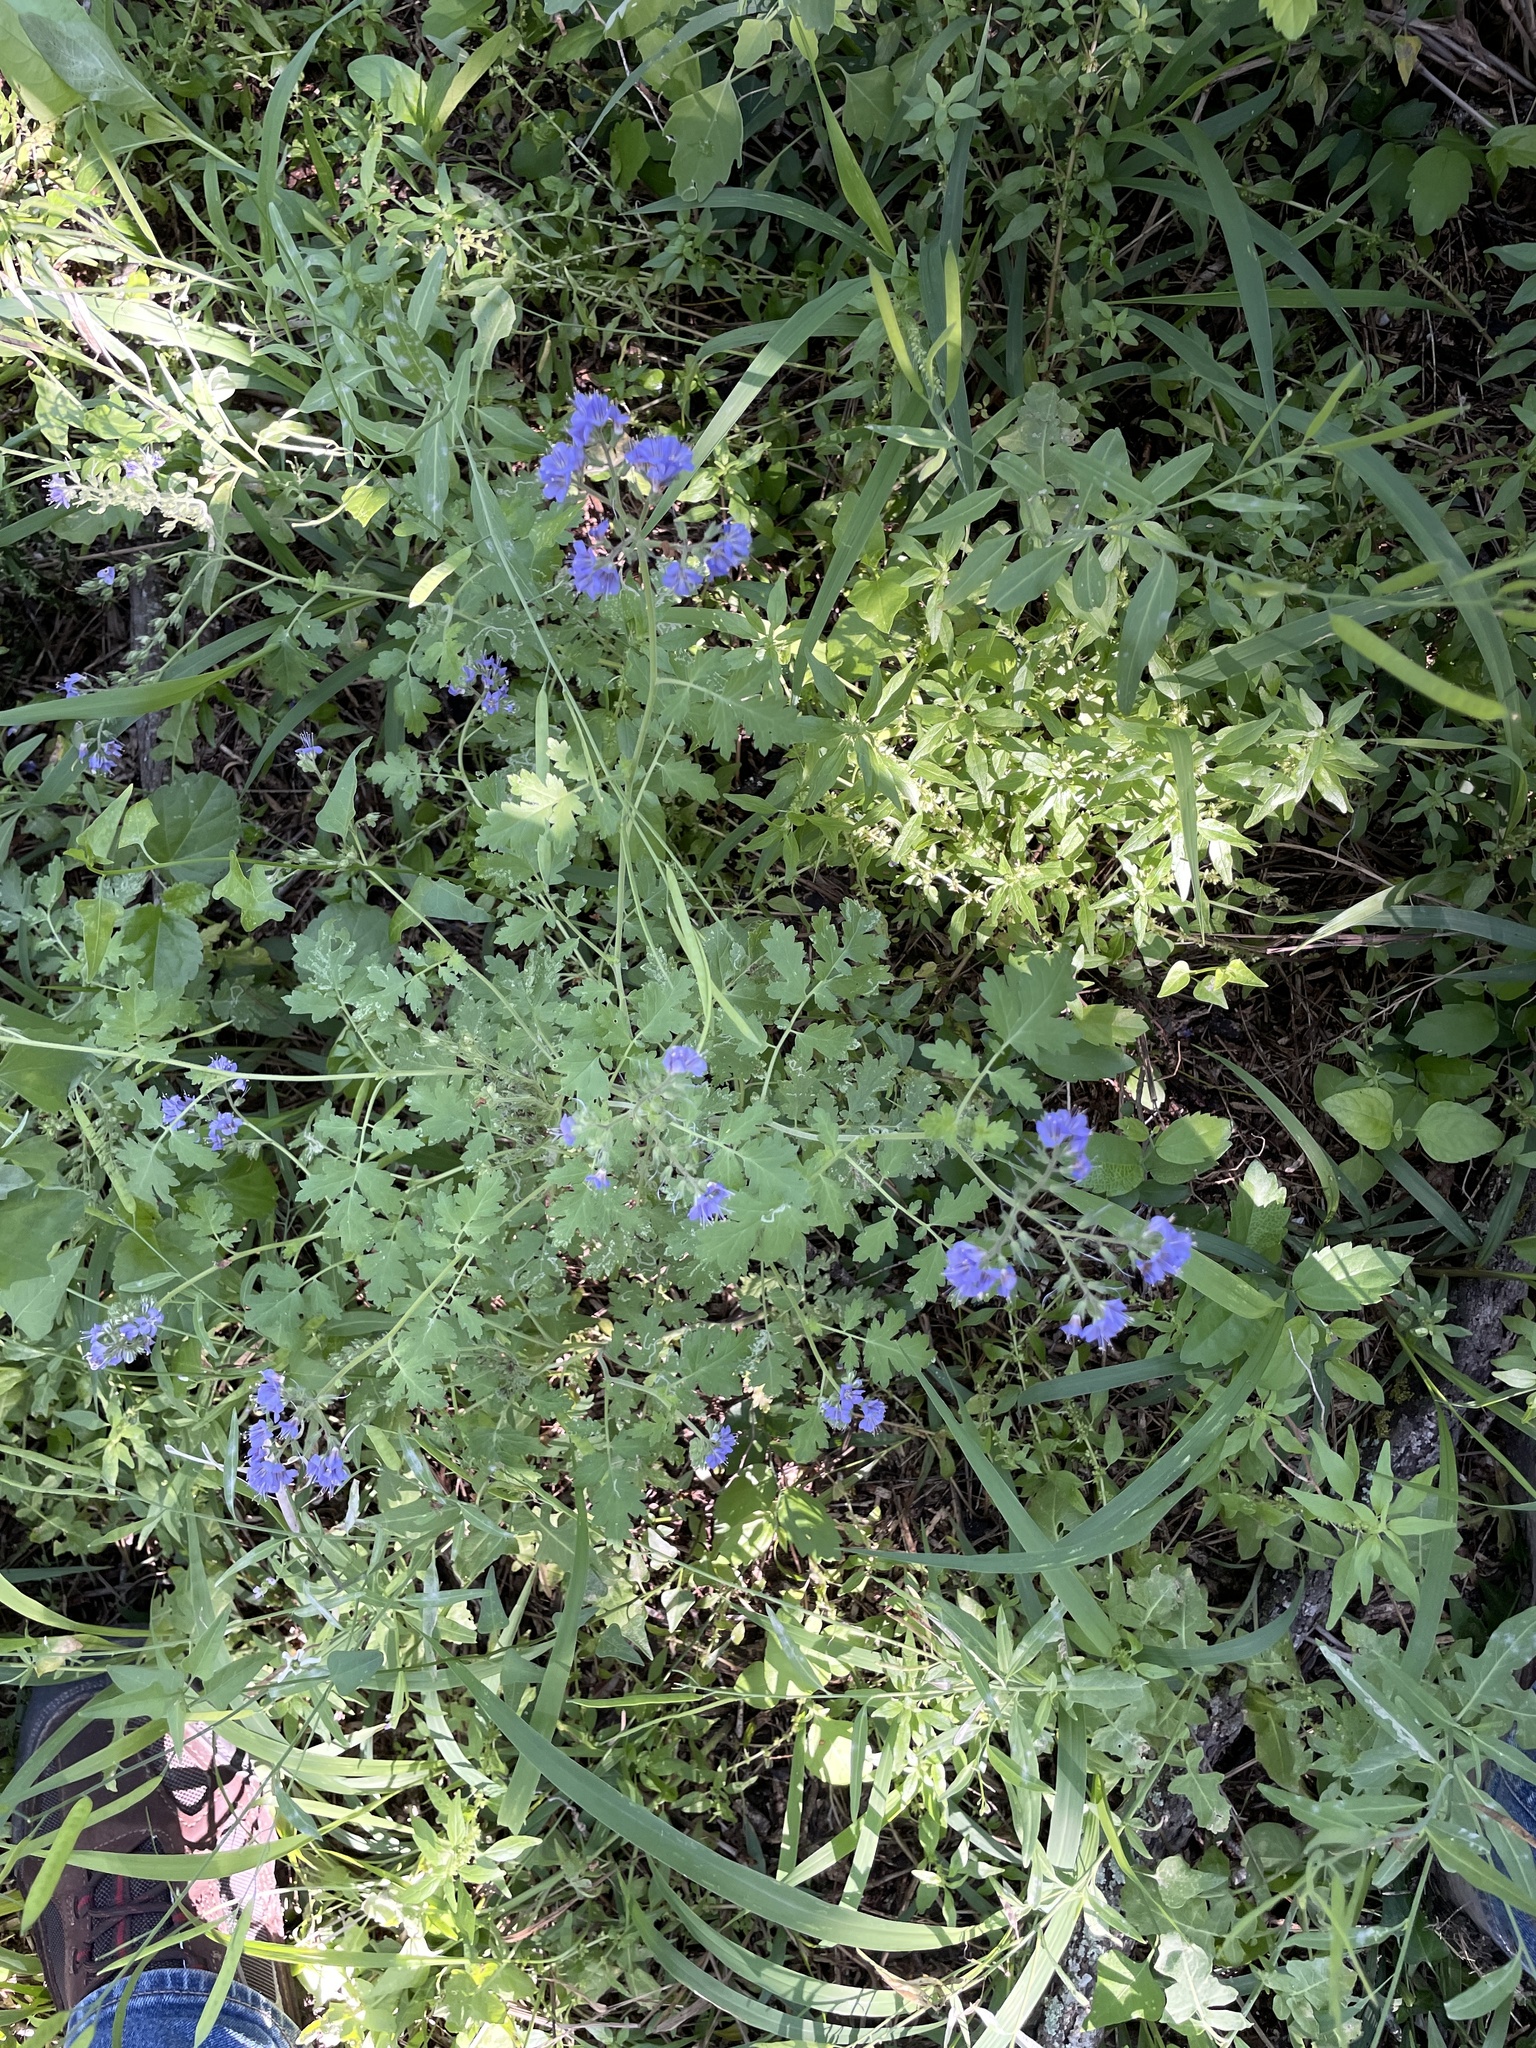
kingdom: Plantae
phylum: Tracheophyta
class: Magnoliopsida
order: Boraginales
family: Hydrophyllaceae
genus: Phacelia
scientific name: Phacelia congesta
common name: Blue curls
